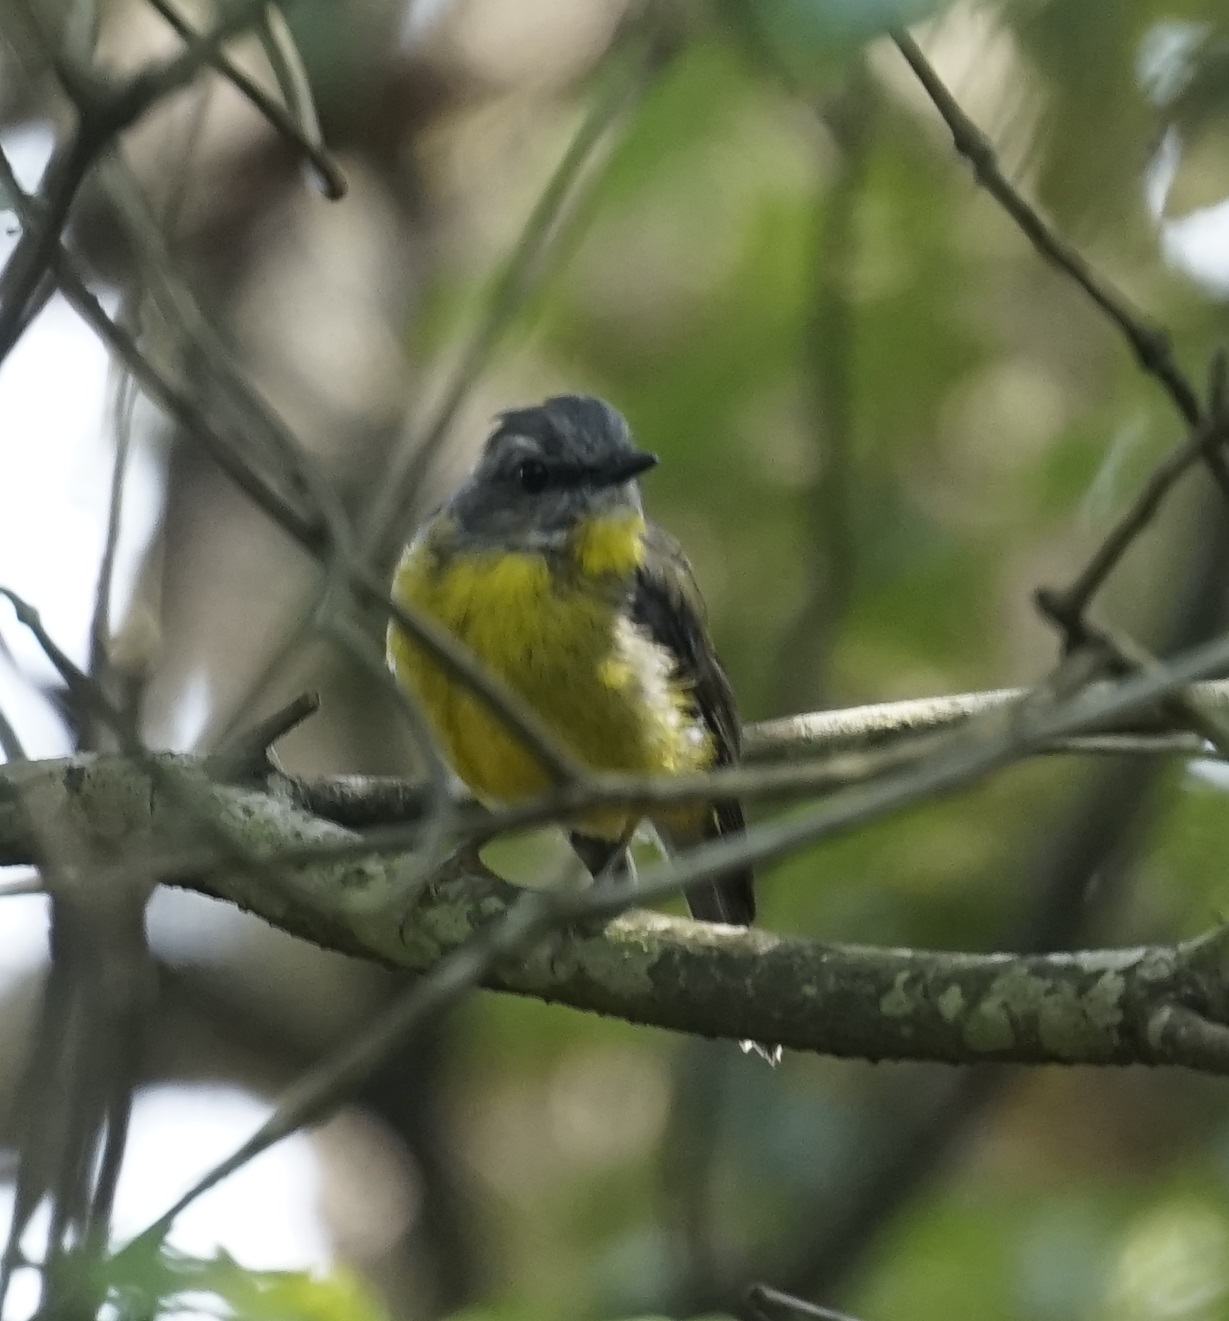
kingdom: Animalia
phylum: Chordata
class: Aves
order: Passeriformes
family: Petroicidae
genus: Eopsaltria
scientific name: Eopsaltria australis
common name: Eastern yellow robin
